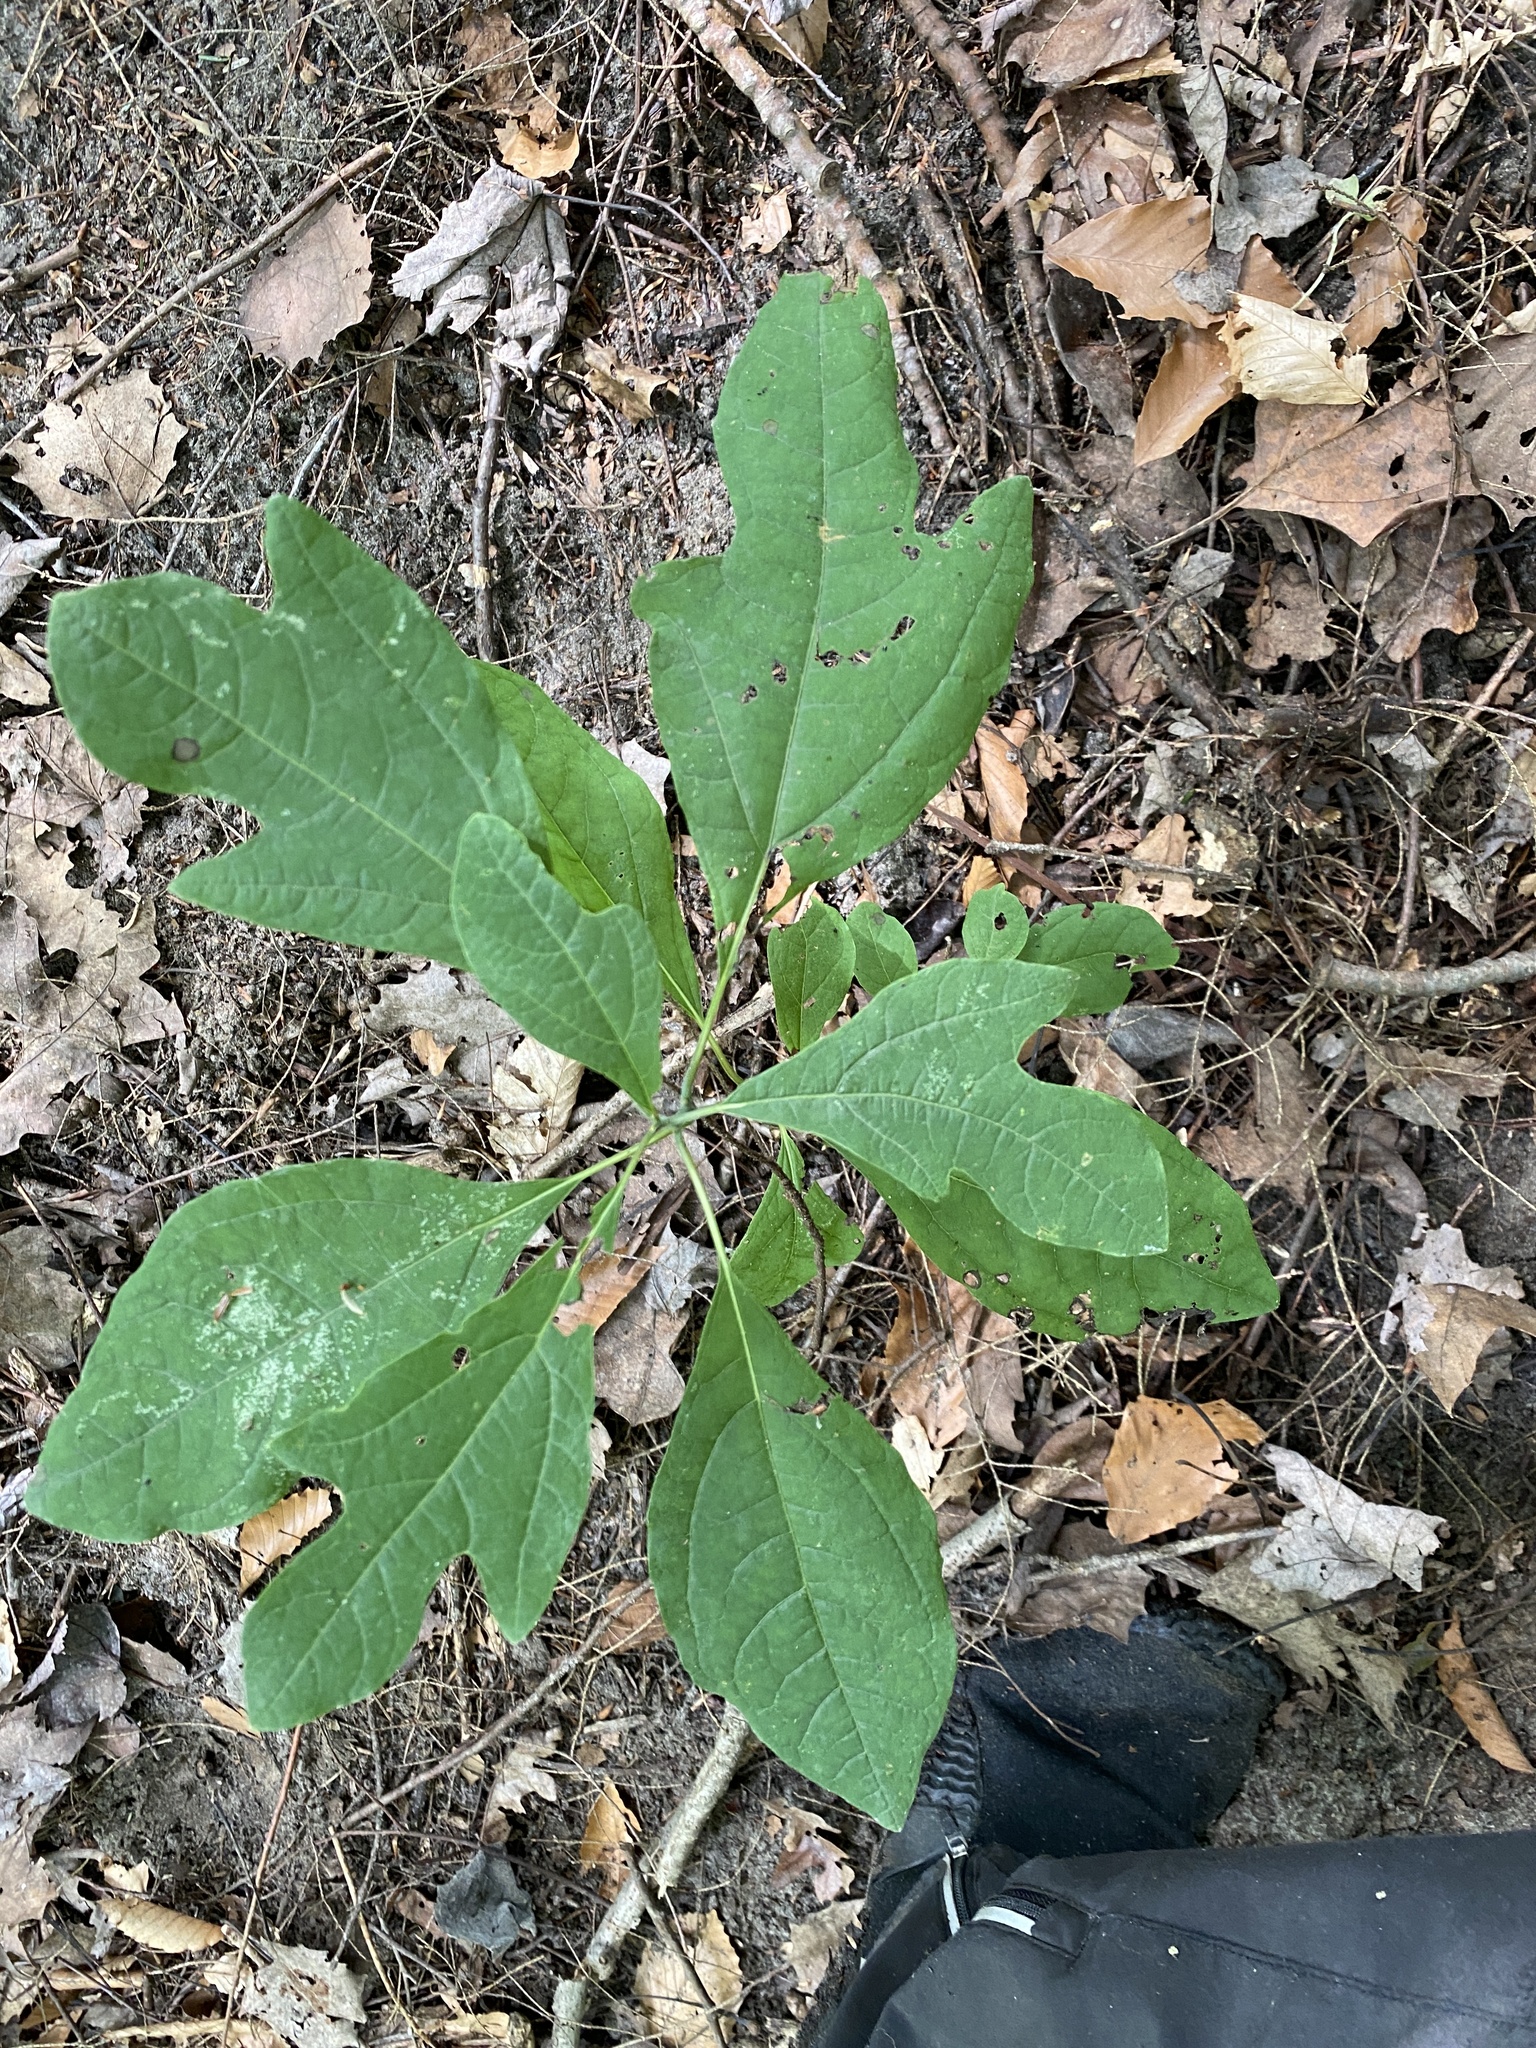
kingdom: Plantae
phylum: Tracheophyta
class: Magnoliopsida
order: Laurales
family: Lauraceae
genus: Sassafras
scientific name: Sassafras albidum
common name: Sassafras
